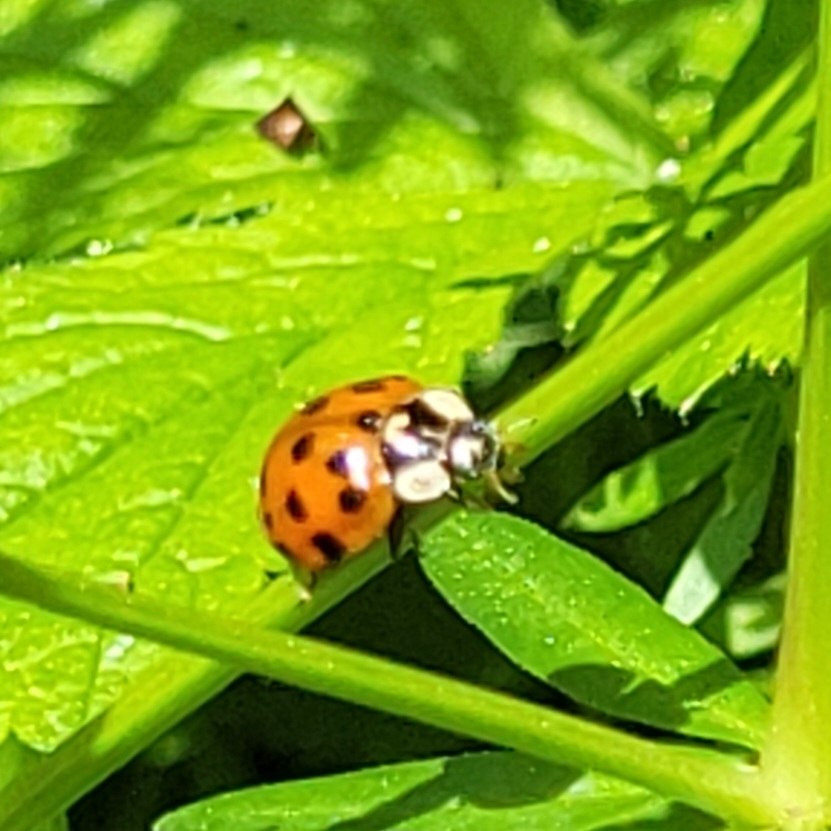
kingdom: Animalia
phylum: Arthropoda
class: Insecta
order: Coleoptera
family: Coccinellidae
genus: Harmonia
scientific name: Harmonia axyridis
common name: Harlequin ladybird
